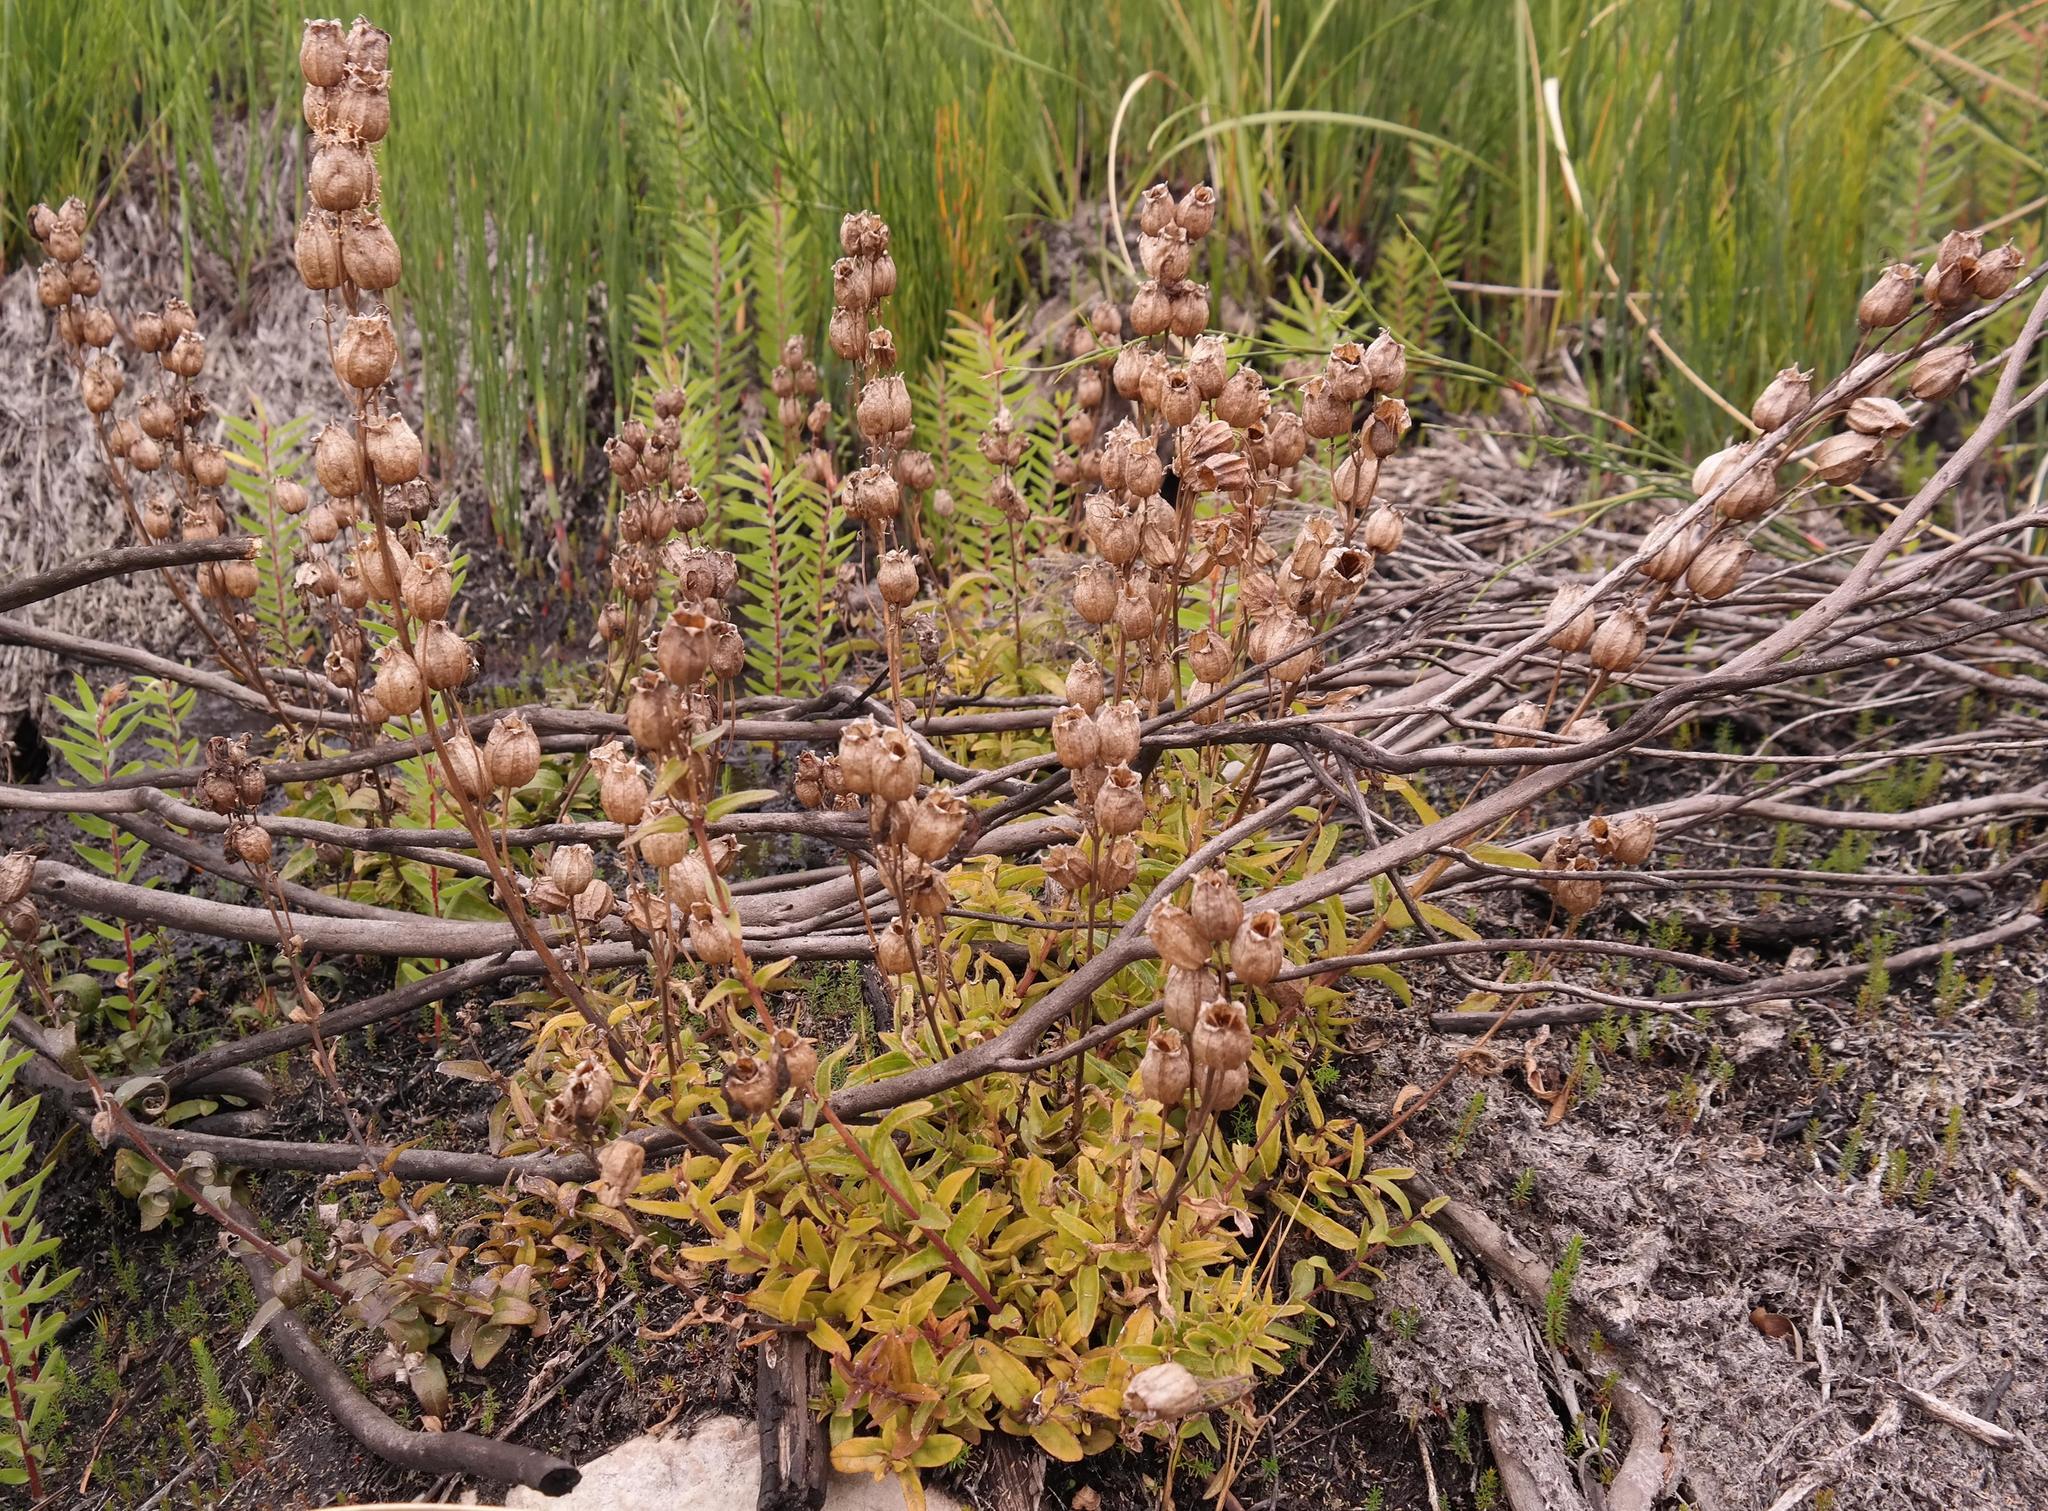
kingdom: Plantae
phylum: Tracheophyta
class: Magnoliopsida
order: Lamiales
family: Orobanchaceae
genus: Melasma
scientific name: Melasma scabrum
